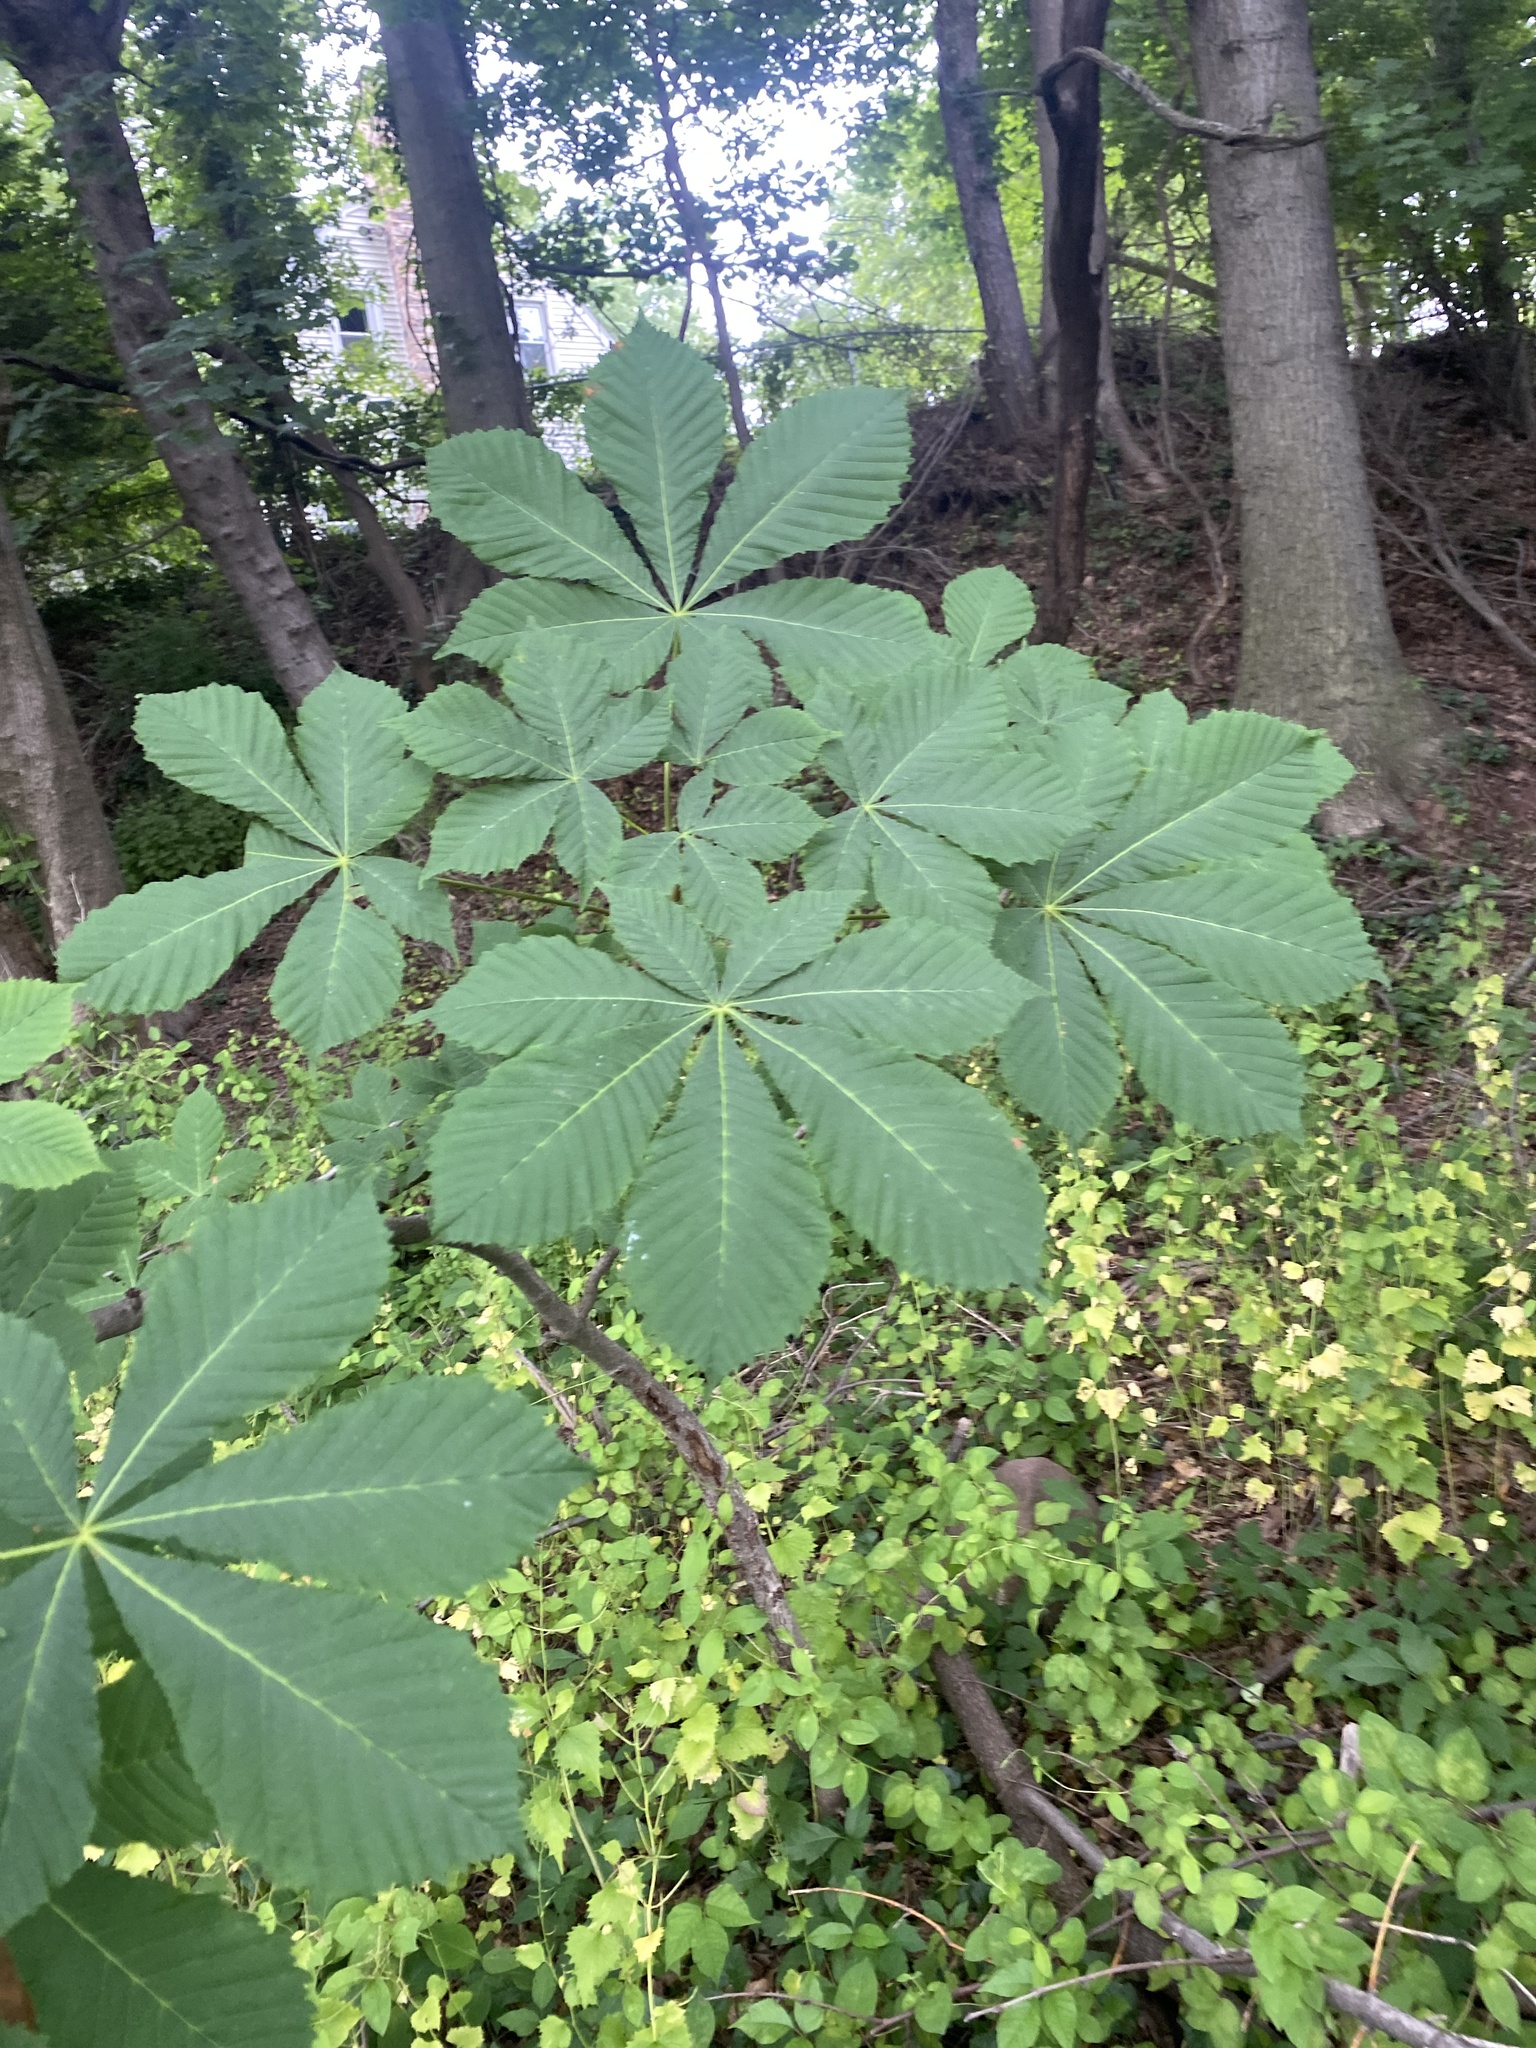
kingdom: Plantae
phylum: Tracheophyta
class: Magnoliopsida
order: Sapindales
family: Sapindaceae
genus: Aesculus
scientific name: Aesculus hippocastanum
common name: Horse-chestnut
